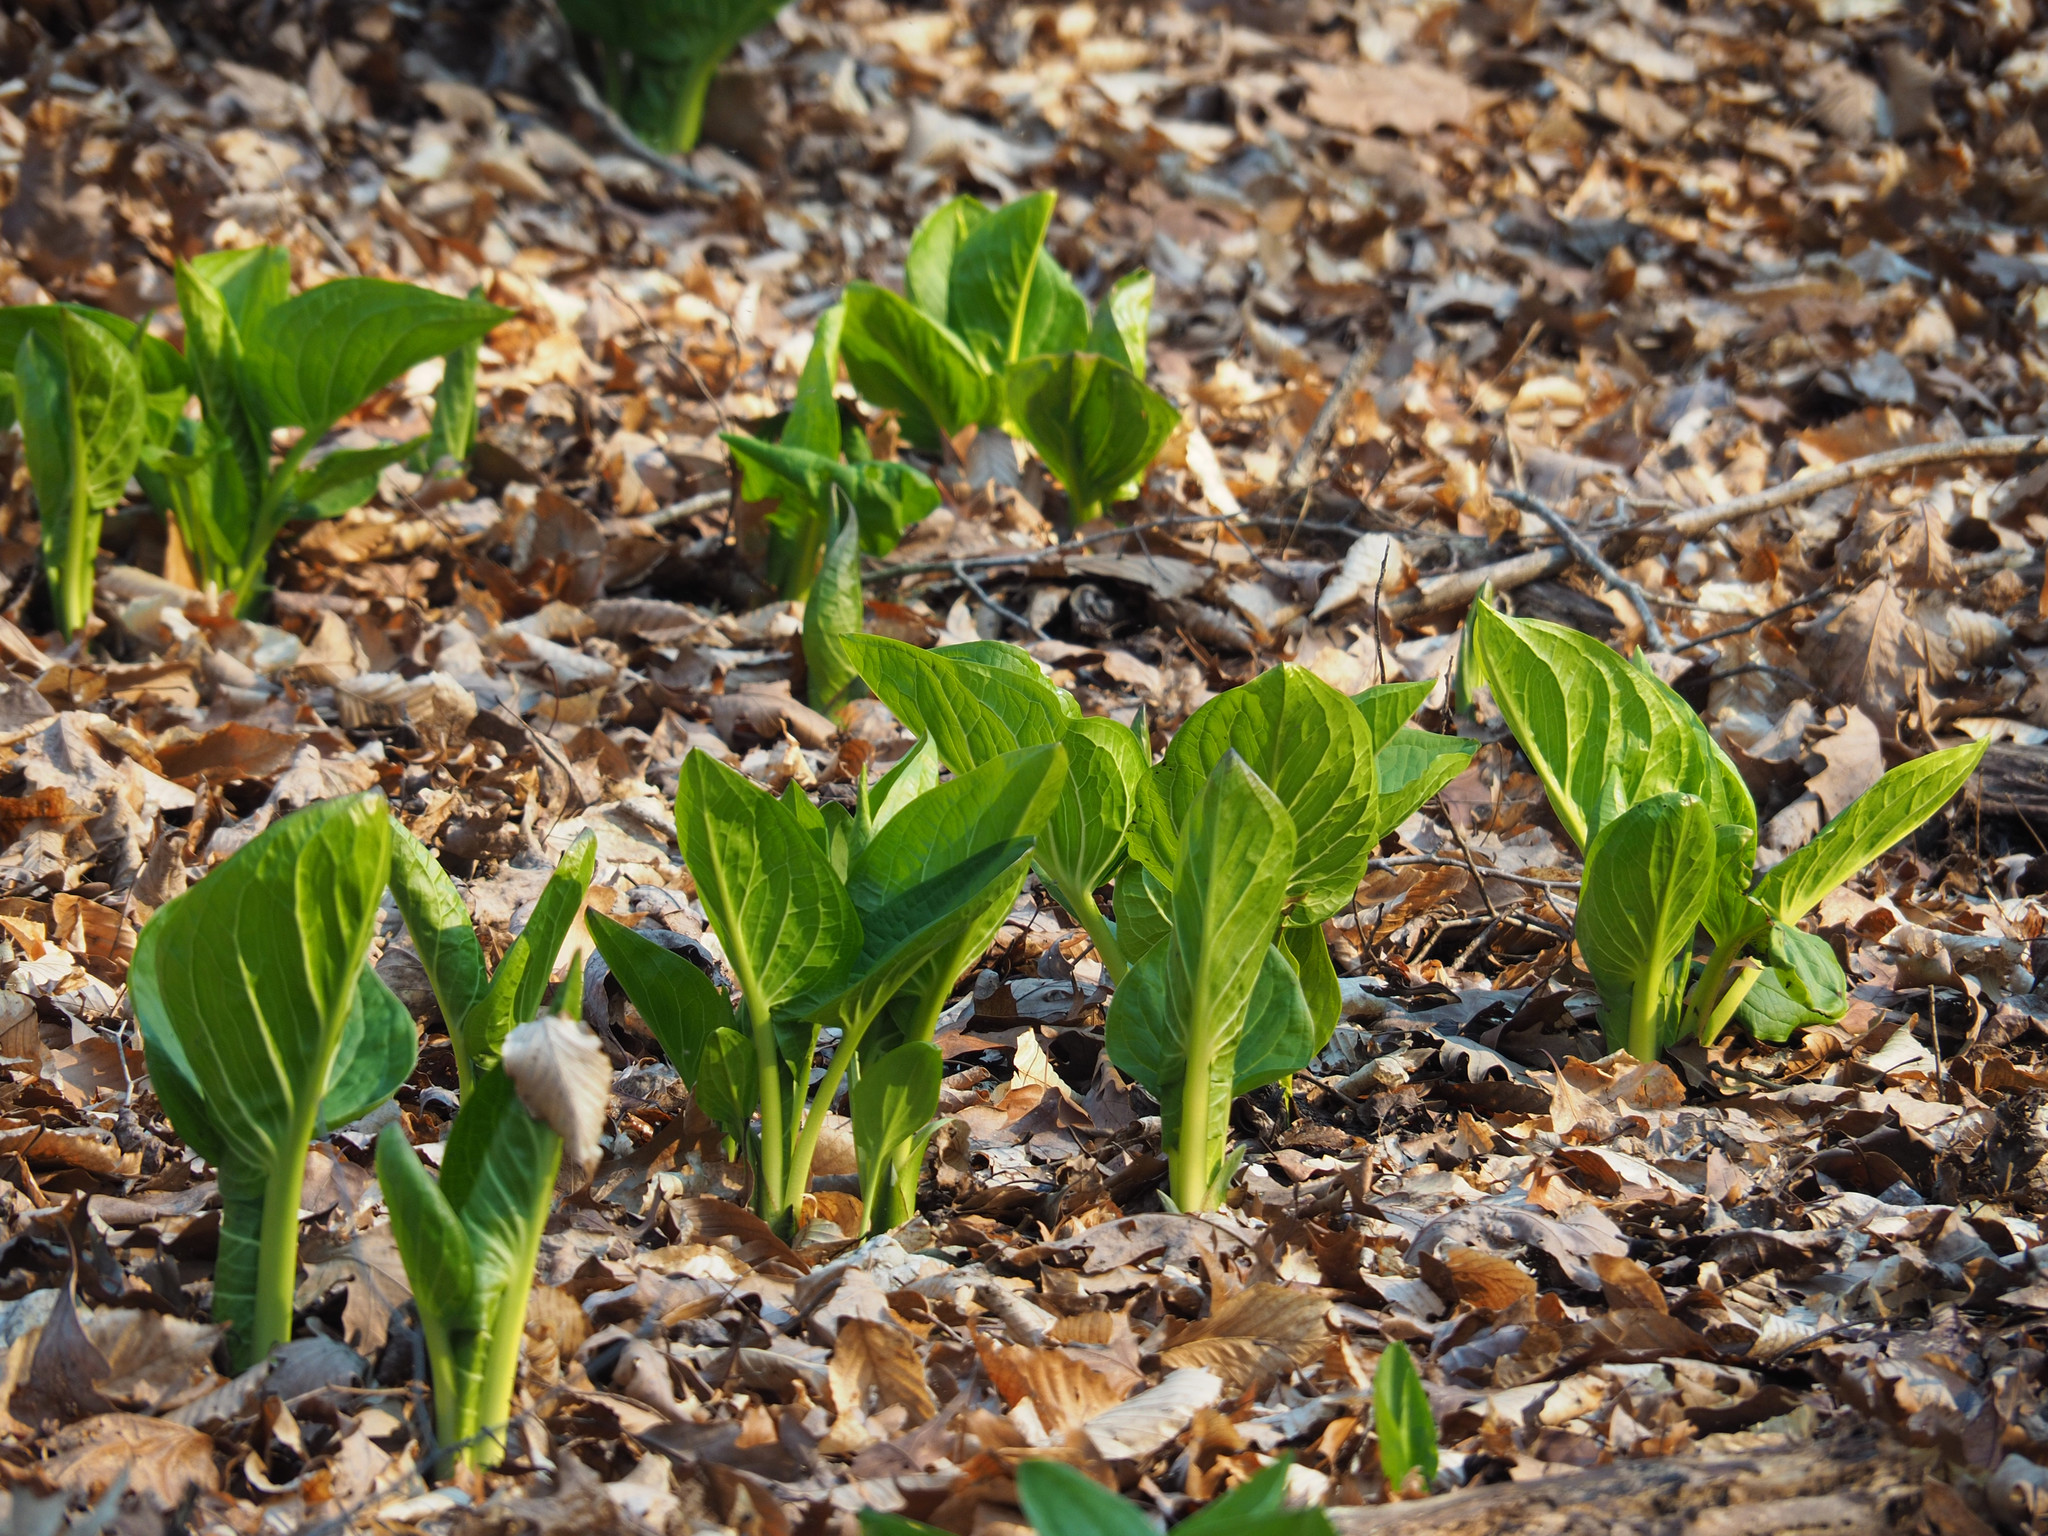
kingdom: Plantae
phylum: Tracheophyta
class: Liliopsida
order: Alismatales
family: Araceae
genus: Symplocarpus
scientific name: Symplocarpus foetidus
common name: Eastern skunk cabbage
